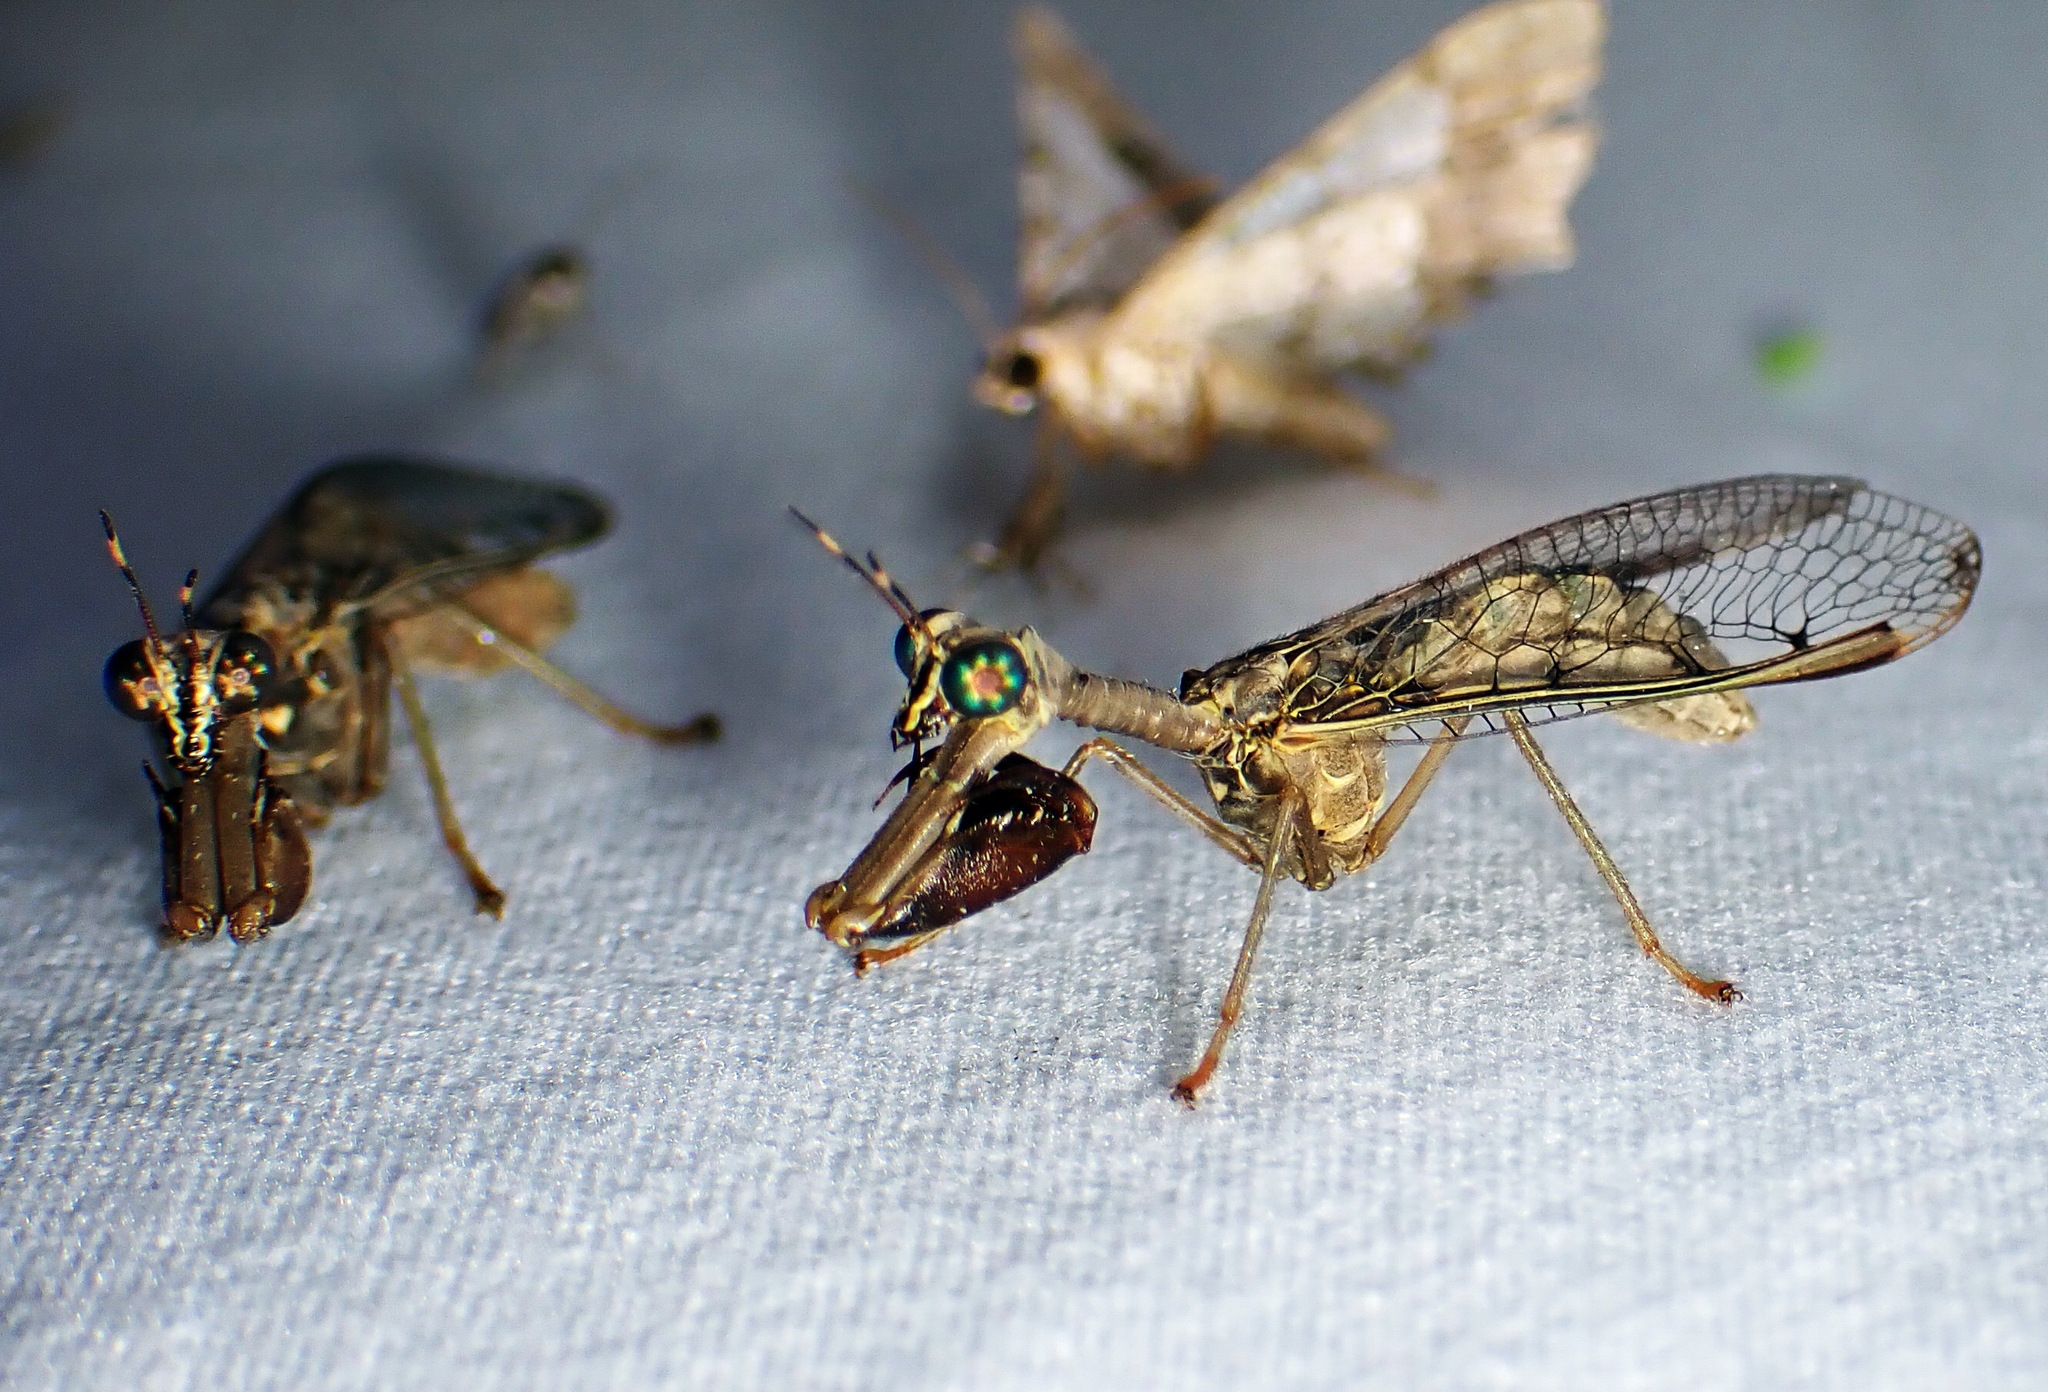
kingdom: Animalia
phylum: Arthropoda
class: Insecta
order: Neuroptera
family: Mantispidae
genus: Dicromantispa
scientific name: Dicromantispa sayi
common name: Say's mantidfly
